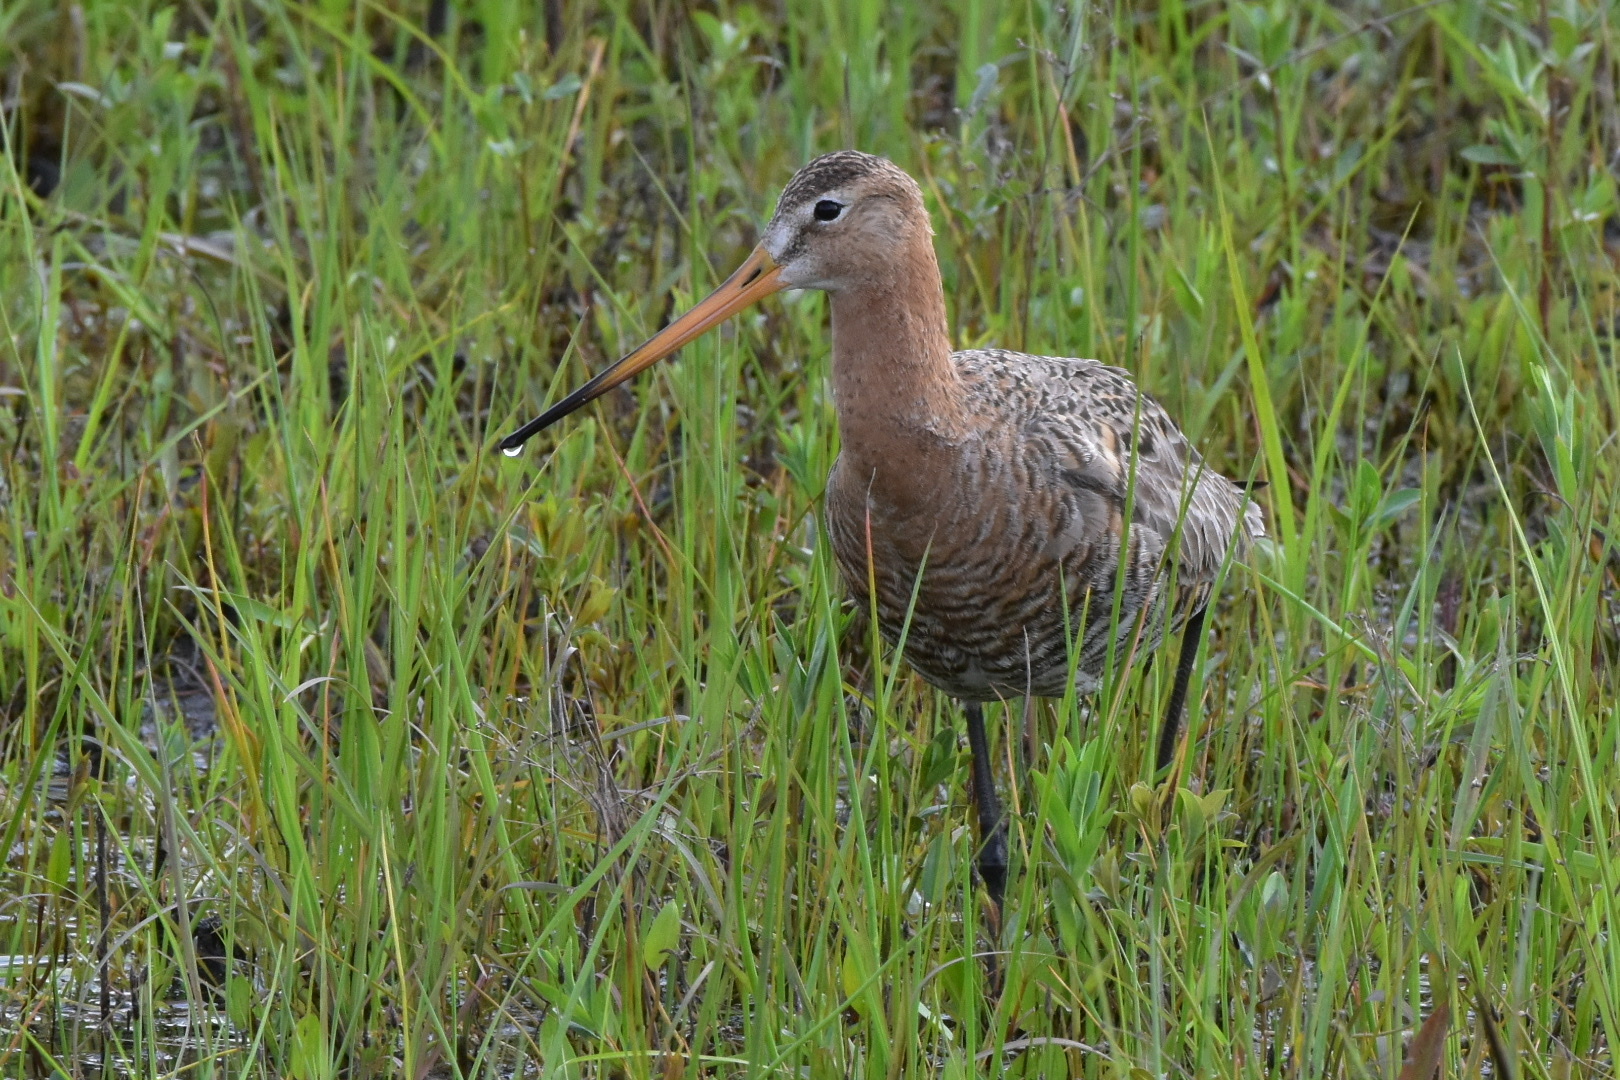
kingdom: Animalia
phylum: Chordata
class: Aves
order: Charadriiformes
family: Scolopacidae
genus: Limosa
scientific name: Limosa limosa
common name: Black-tailed godwit
